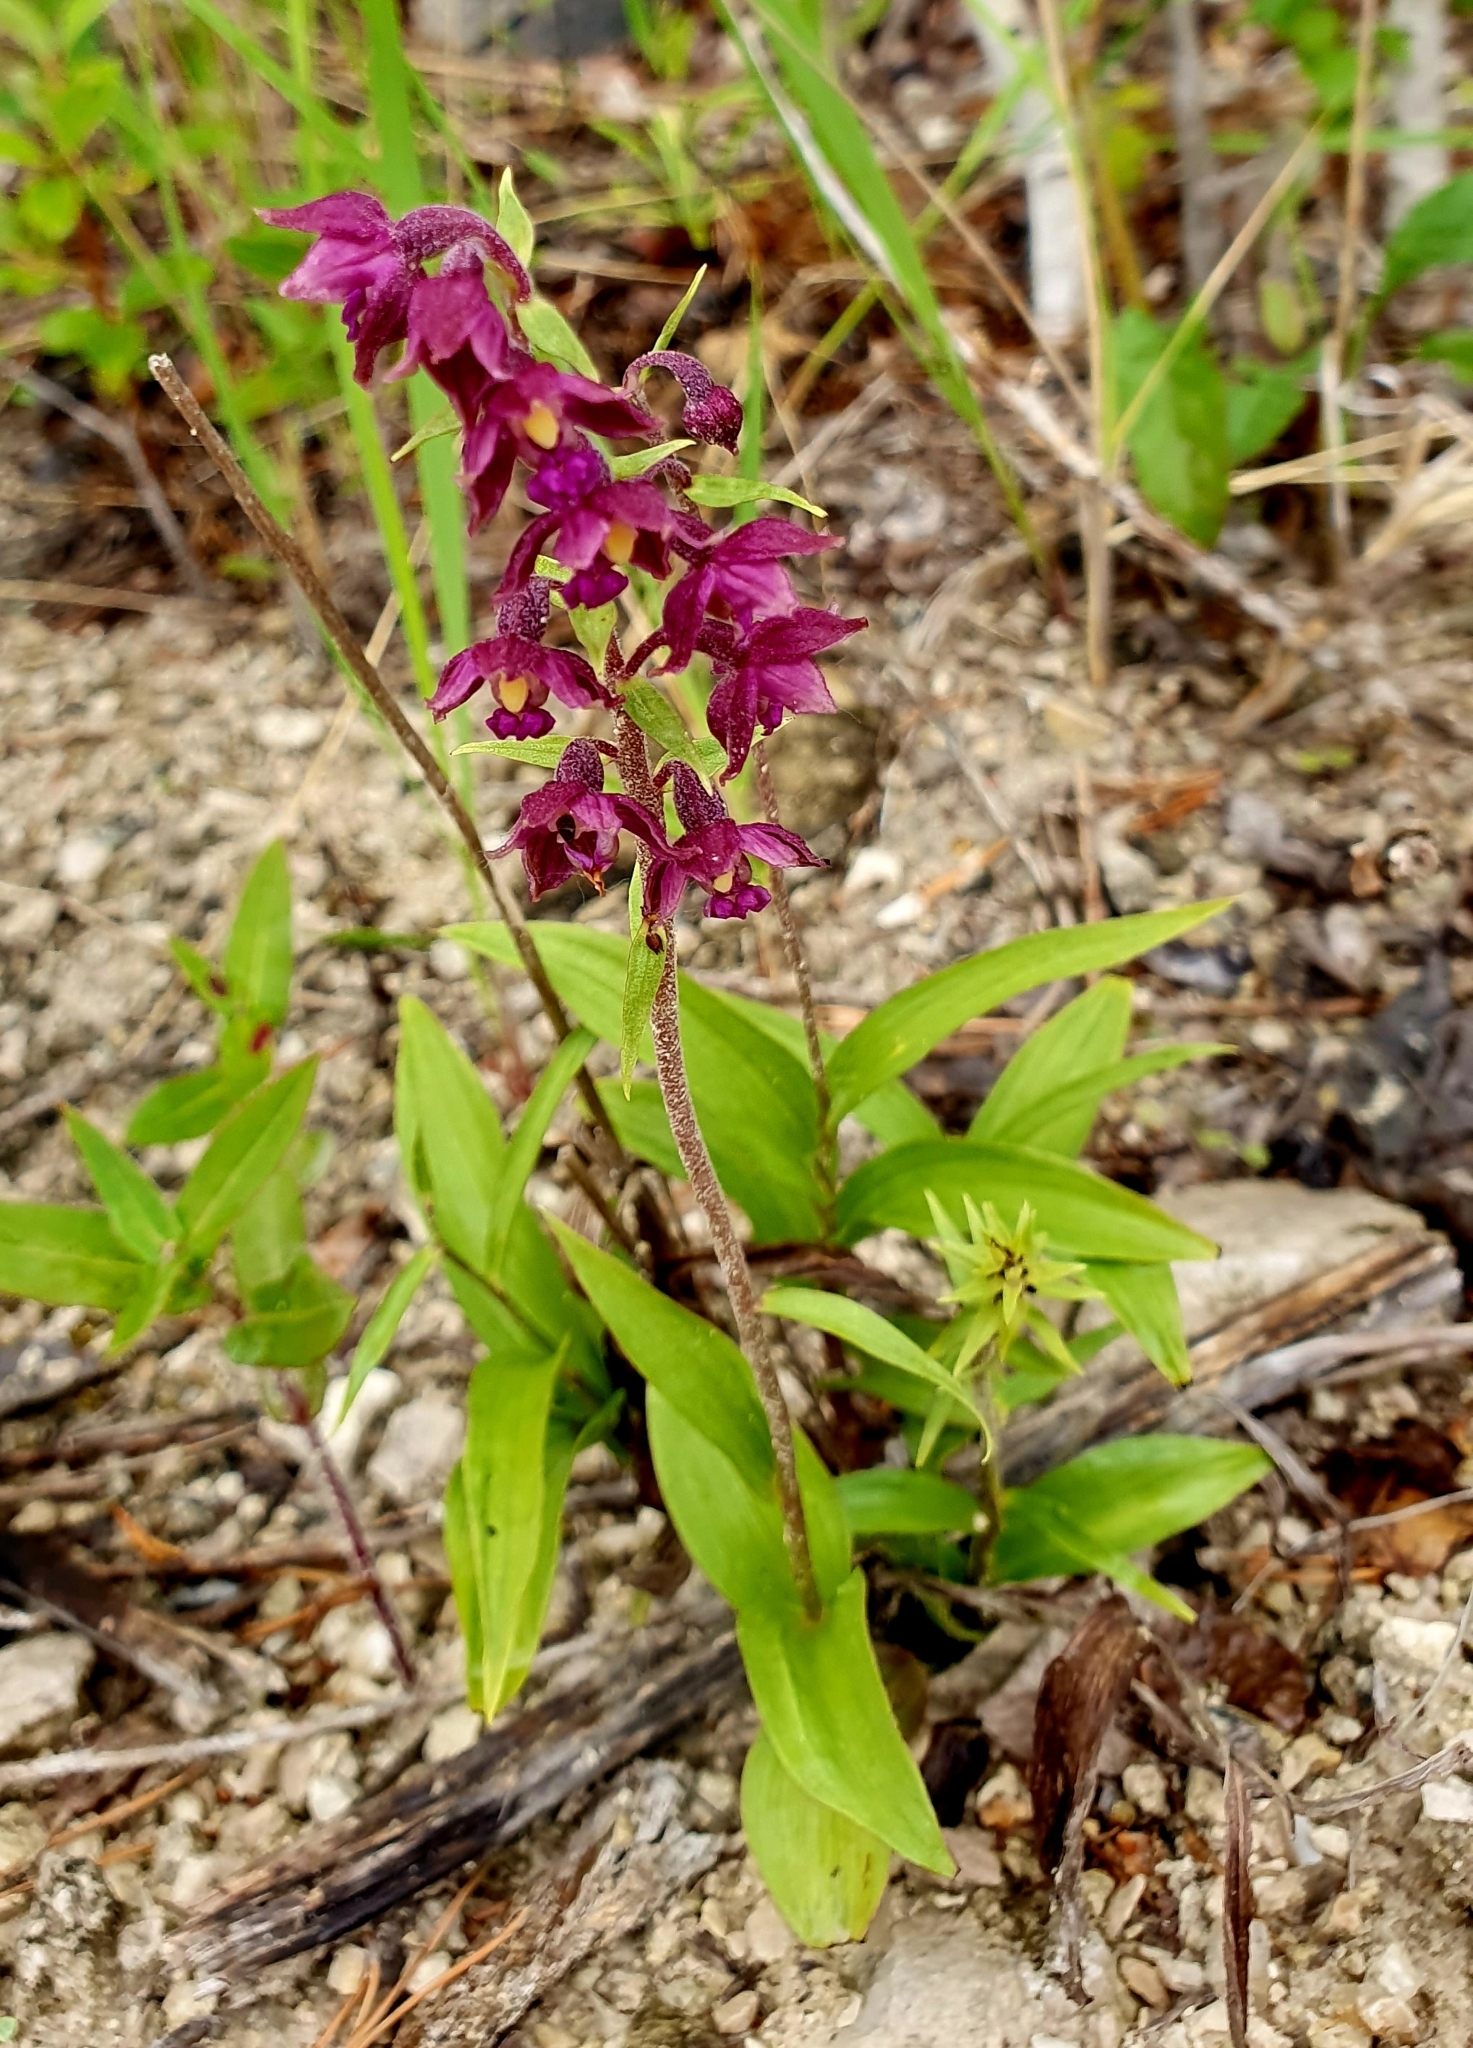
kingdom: Plantae
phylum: Tracheophyta
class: Liliopsida
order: Asparagales
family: Orchidaceae
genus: Epipactis
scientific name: Epipactis atrorubens
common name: Dark-red helleborine
